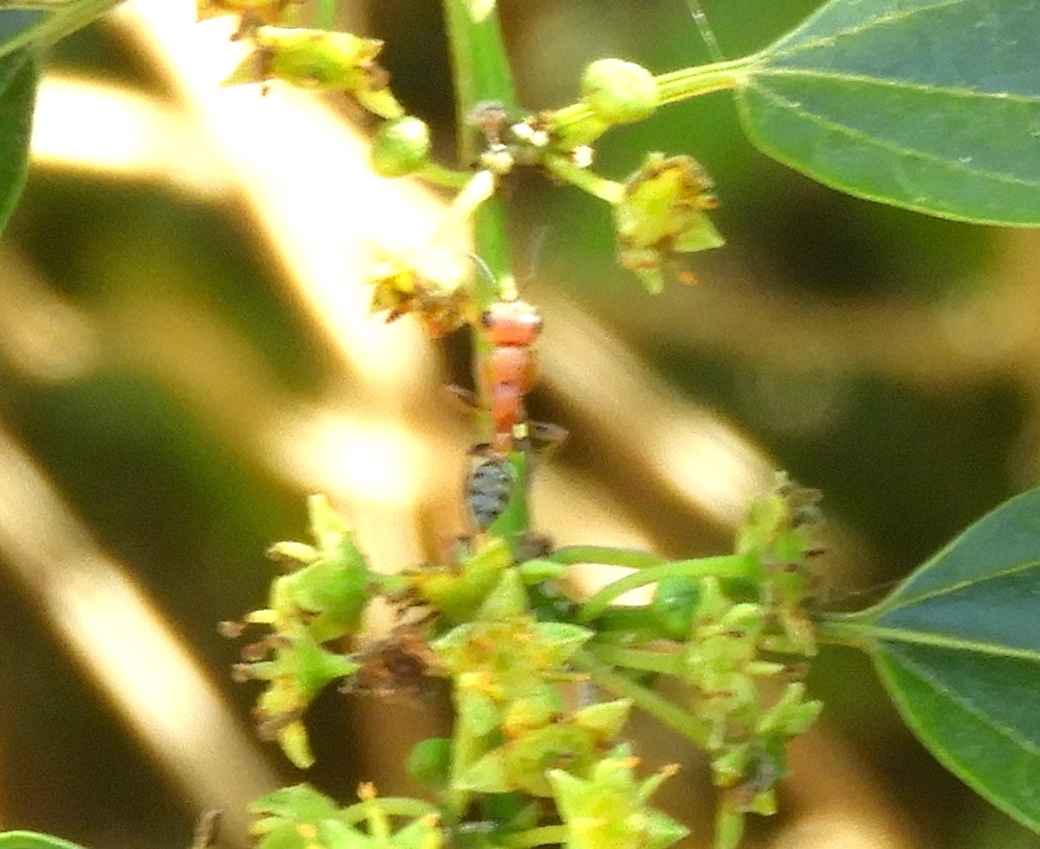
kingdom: Animalia
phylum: Arthropoda
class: Insecta
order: Hymenoptera
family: Formicidae
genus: Pseudomyrmex
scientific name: Pseudomyrmex
